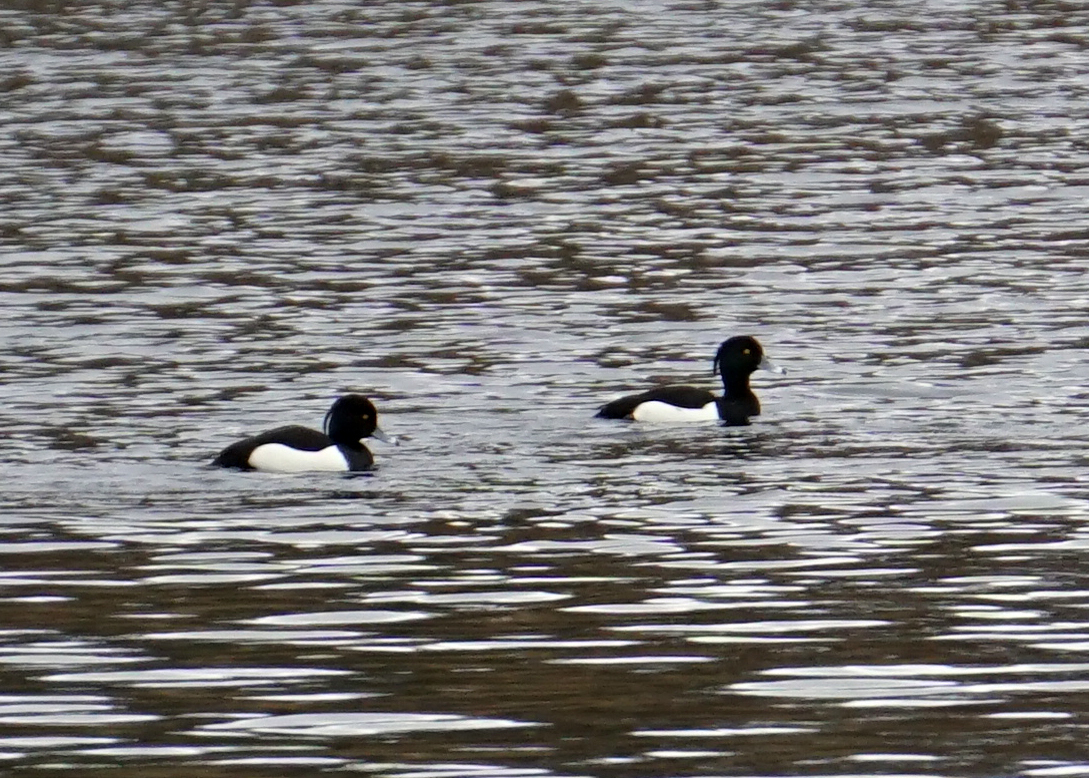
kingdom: Animalia
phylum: Chordata
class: Aves
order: Anseriformes
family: Anatidae
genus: Aythya
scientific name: Aythya fuligula
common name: Tufted duck
